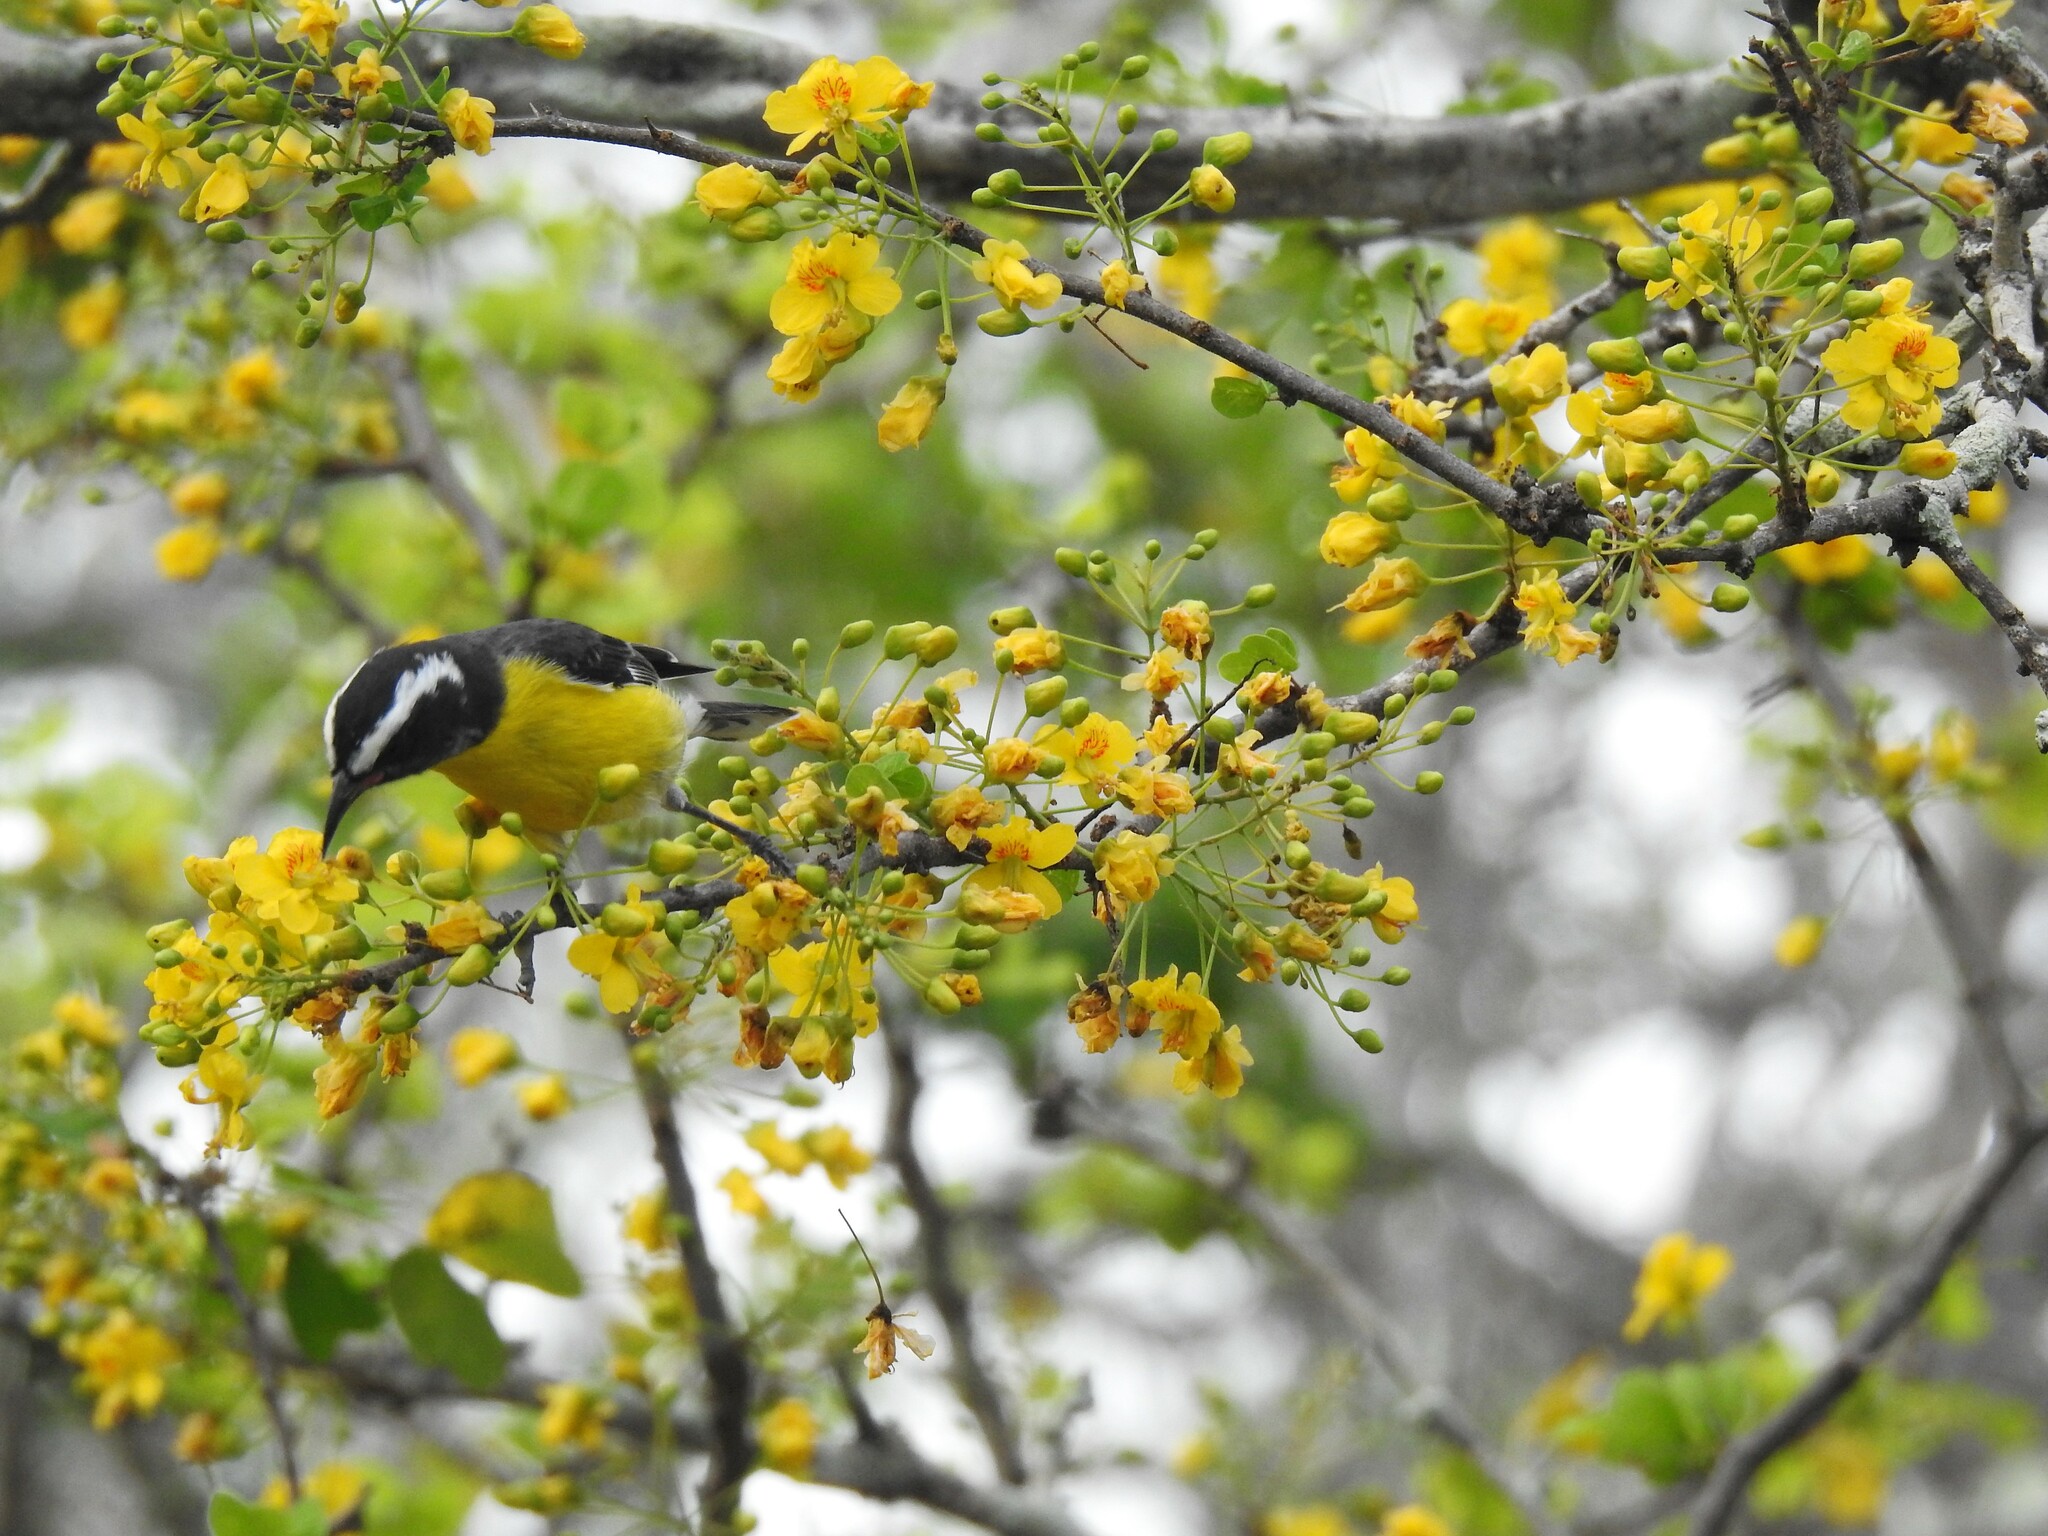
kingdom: Animalia
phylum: Chordata
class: Aves
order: Passeriformes
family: Thraupidae
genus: Coereba
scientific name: Coereba flaveola
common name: Bananaquit
